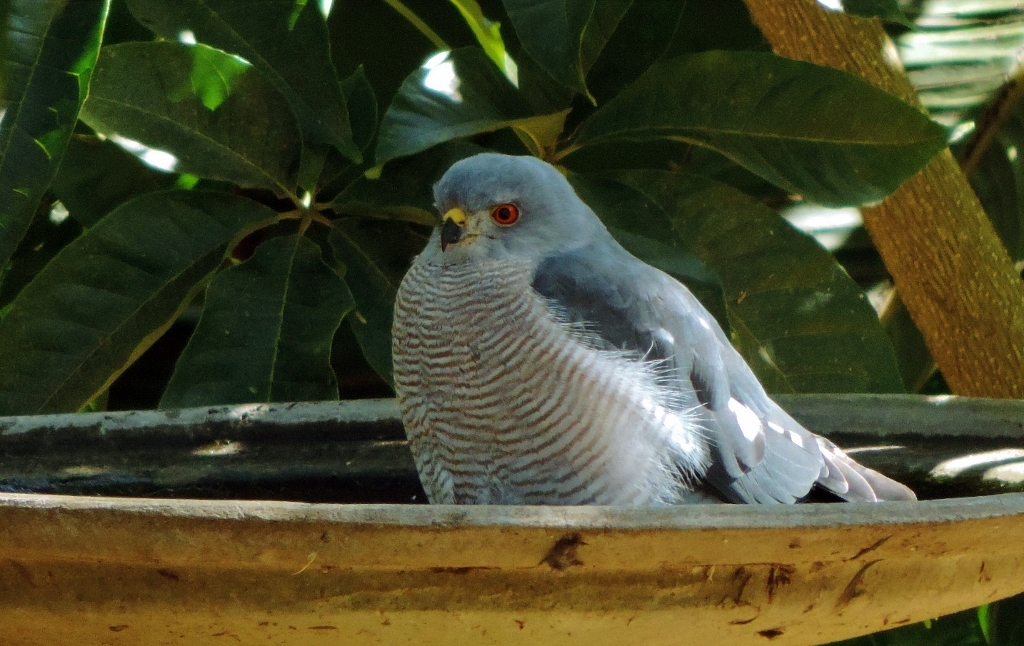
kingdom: Animalia
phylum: Chordata
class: Aves
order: Accipitriformes
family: Accipitridae
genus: Accipiter
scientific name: Accipiter badius
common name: Shikra
